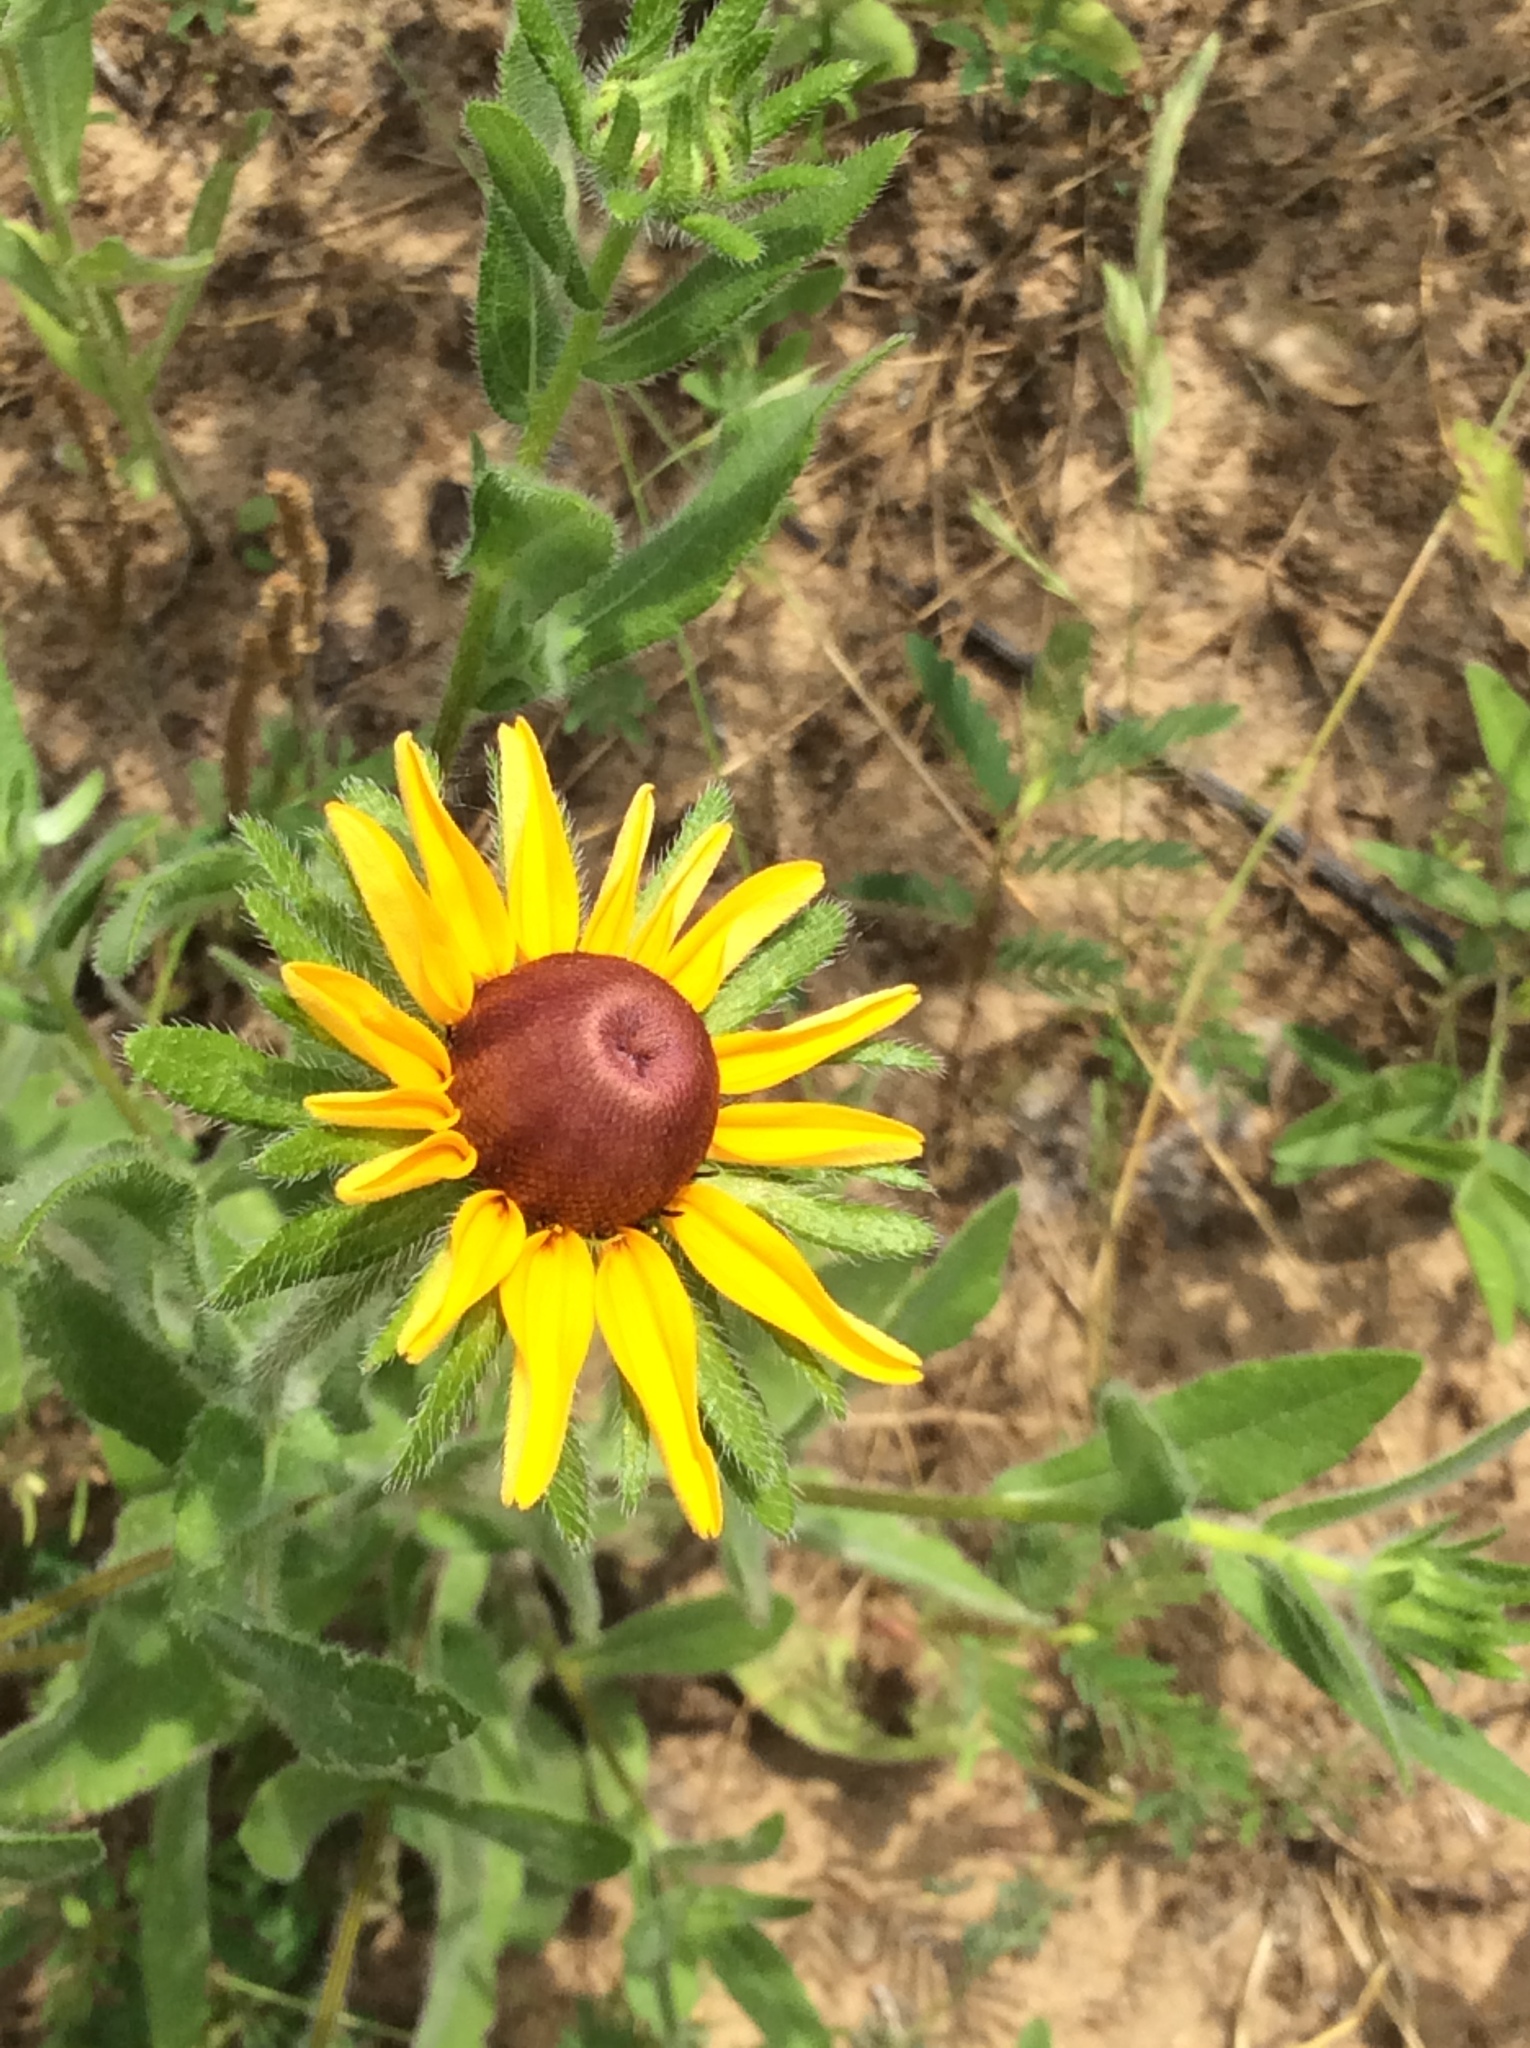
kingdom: Plantae
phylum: Tracheophyta
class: Magnoliopsida
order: Asterales
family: Asteraceae
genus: Rudbeckia
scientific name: Rudbeckia hirta
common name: Black-eyed-susan
